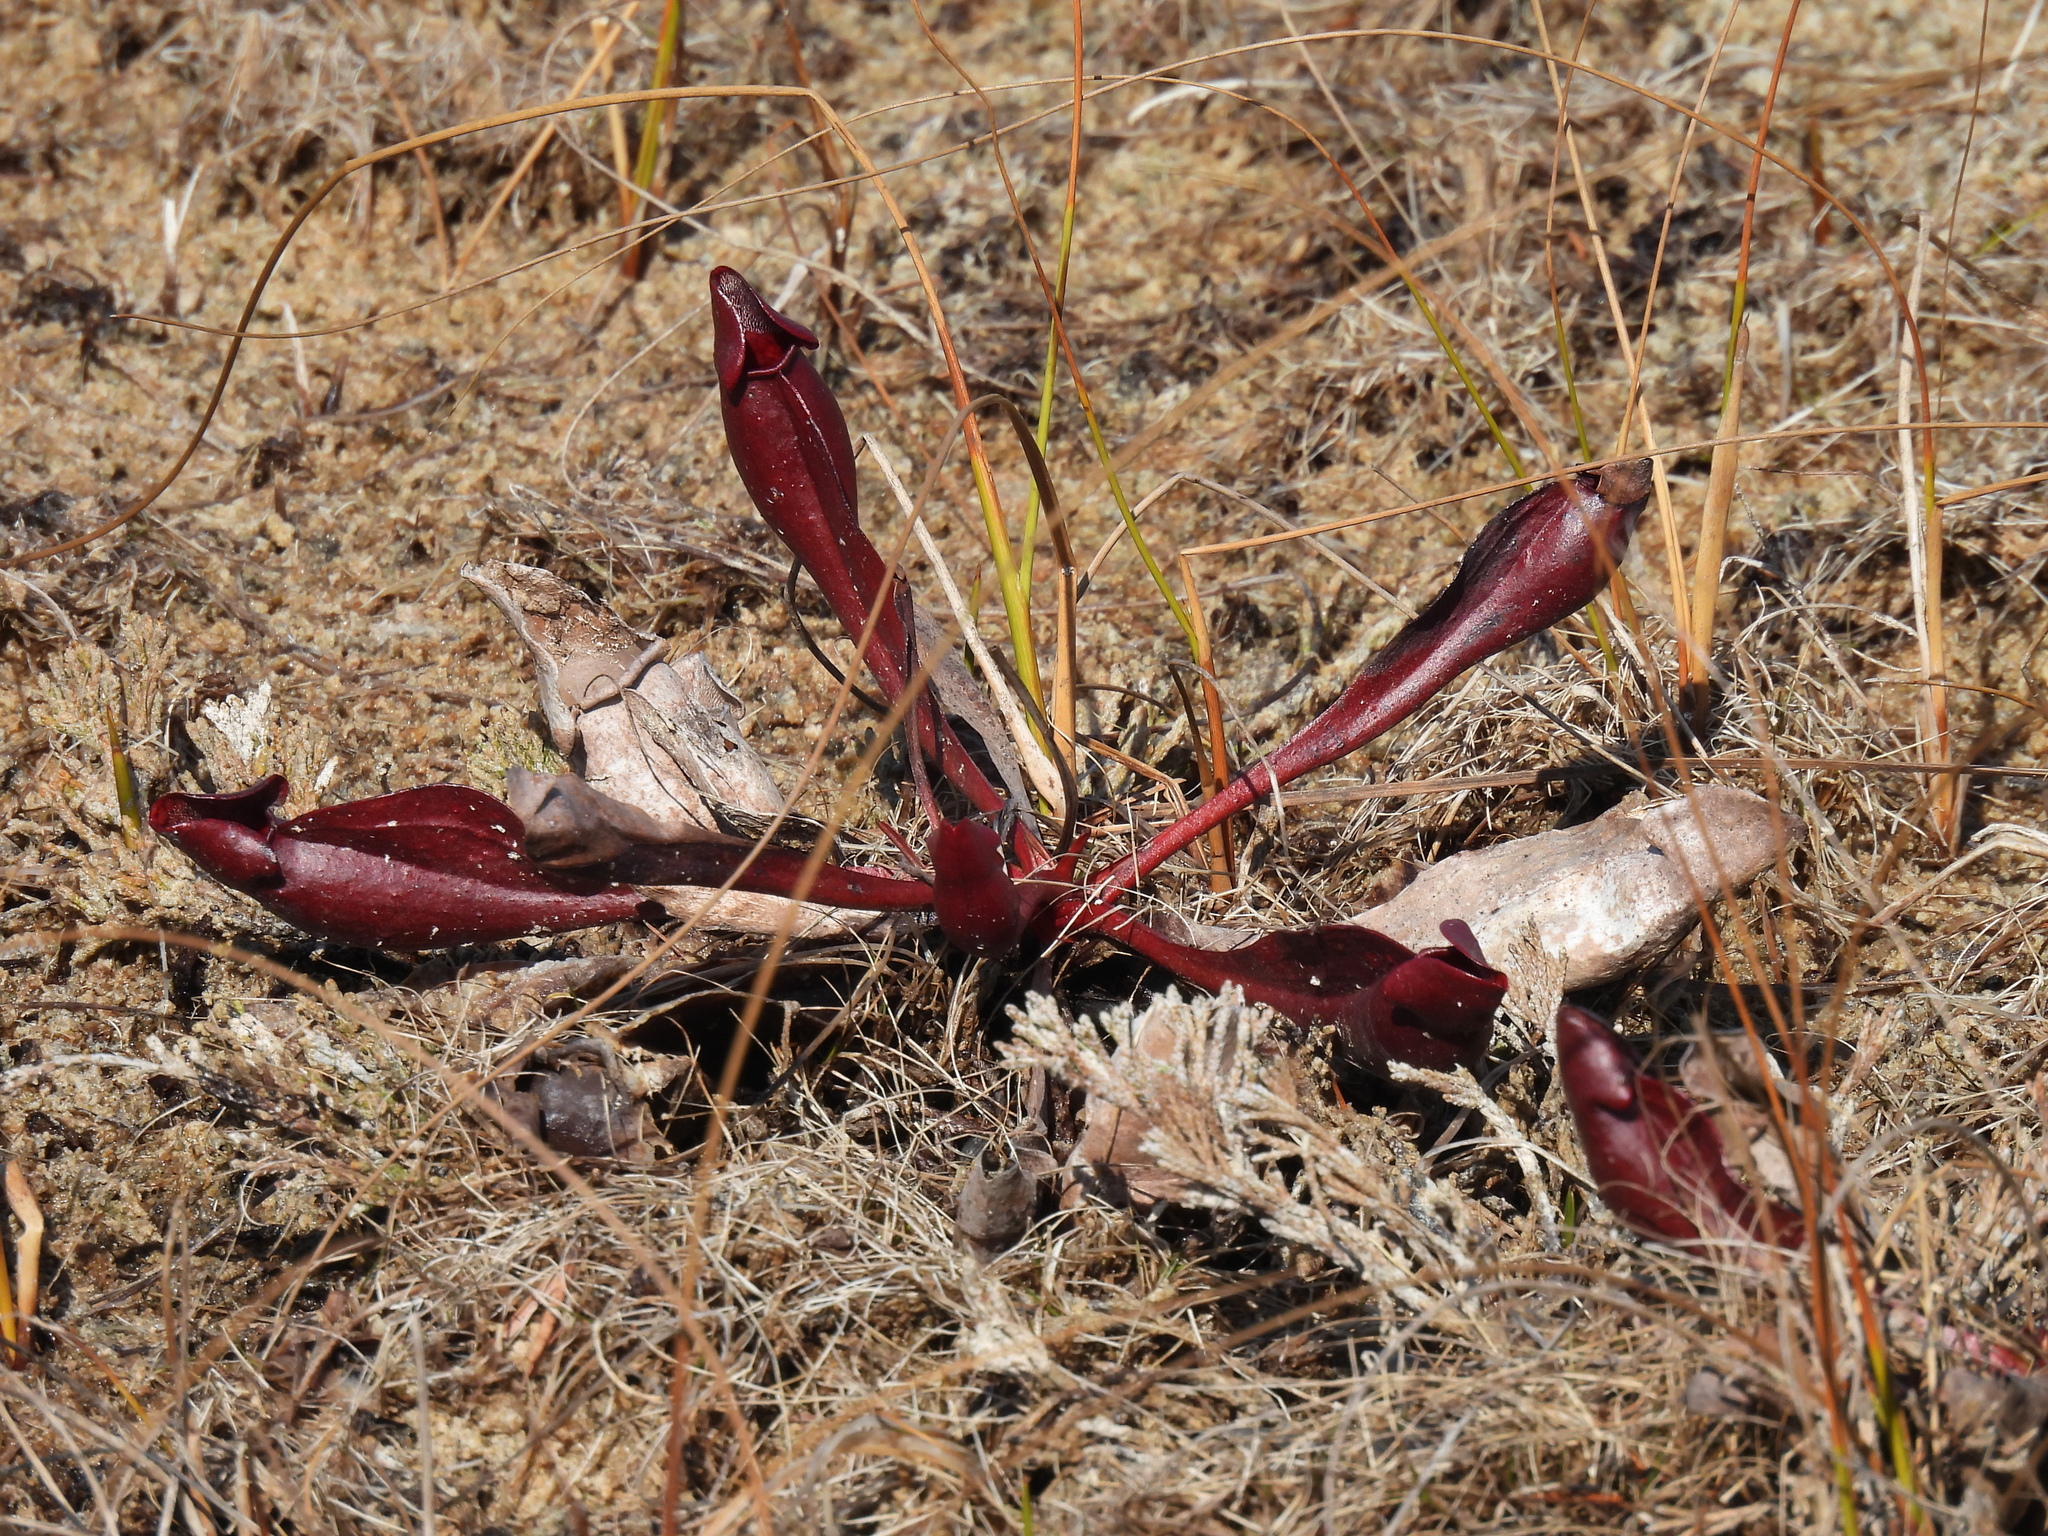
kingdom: Plantae
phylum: Tracheophyta
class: Magnoliopsida
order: Ericales
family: Sarraceniaceae
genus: Sarracenia
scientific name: Sarracenia purpurea
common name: Pitcherplant
